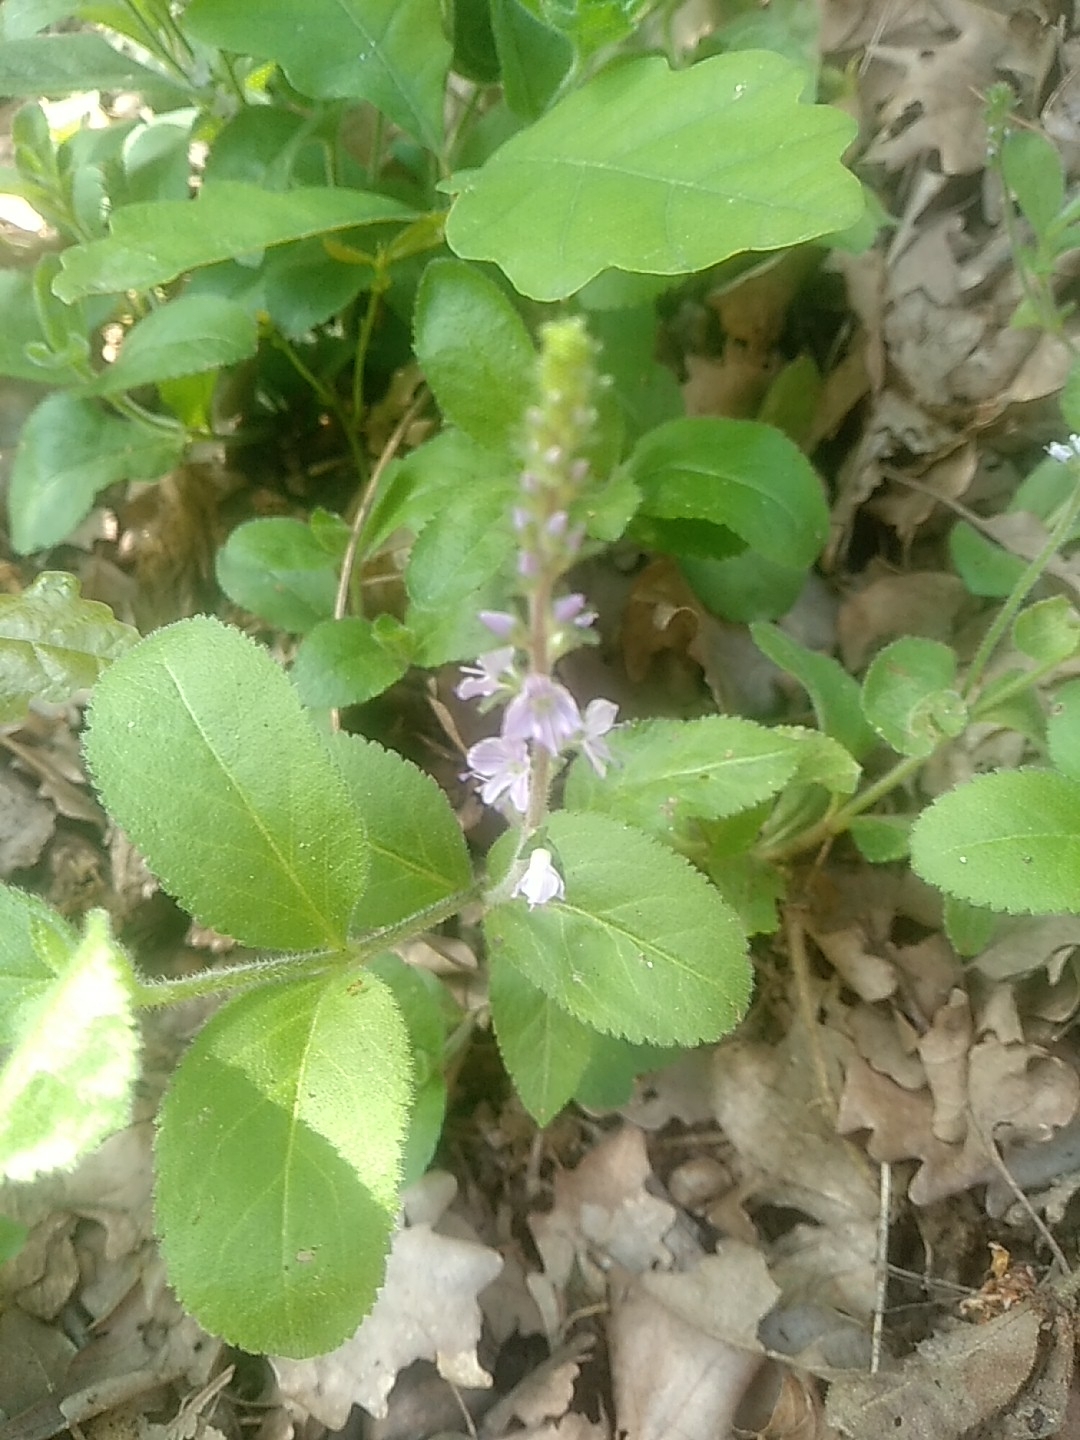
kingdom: Plantae
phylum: Tracheophyta
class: Magnoliopsida
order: Lamiales
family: Plantaginaceae
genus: Veronica
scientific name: Veronica officinalis
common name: Common speedwell
